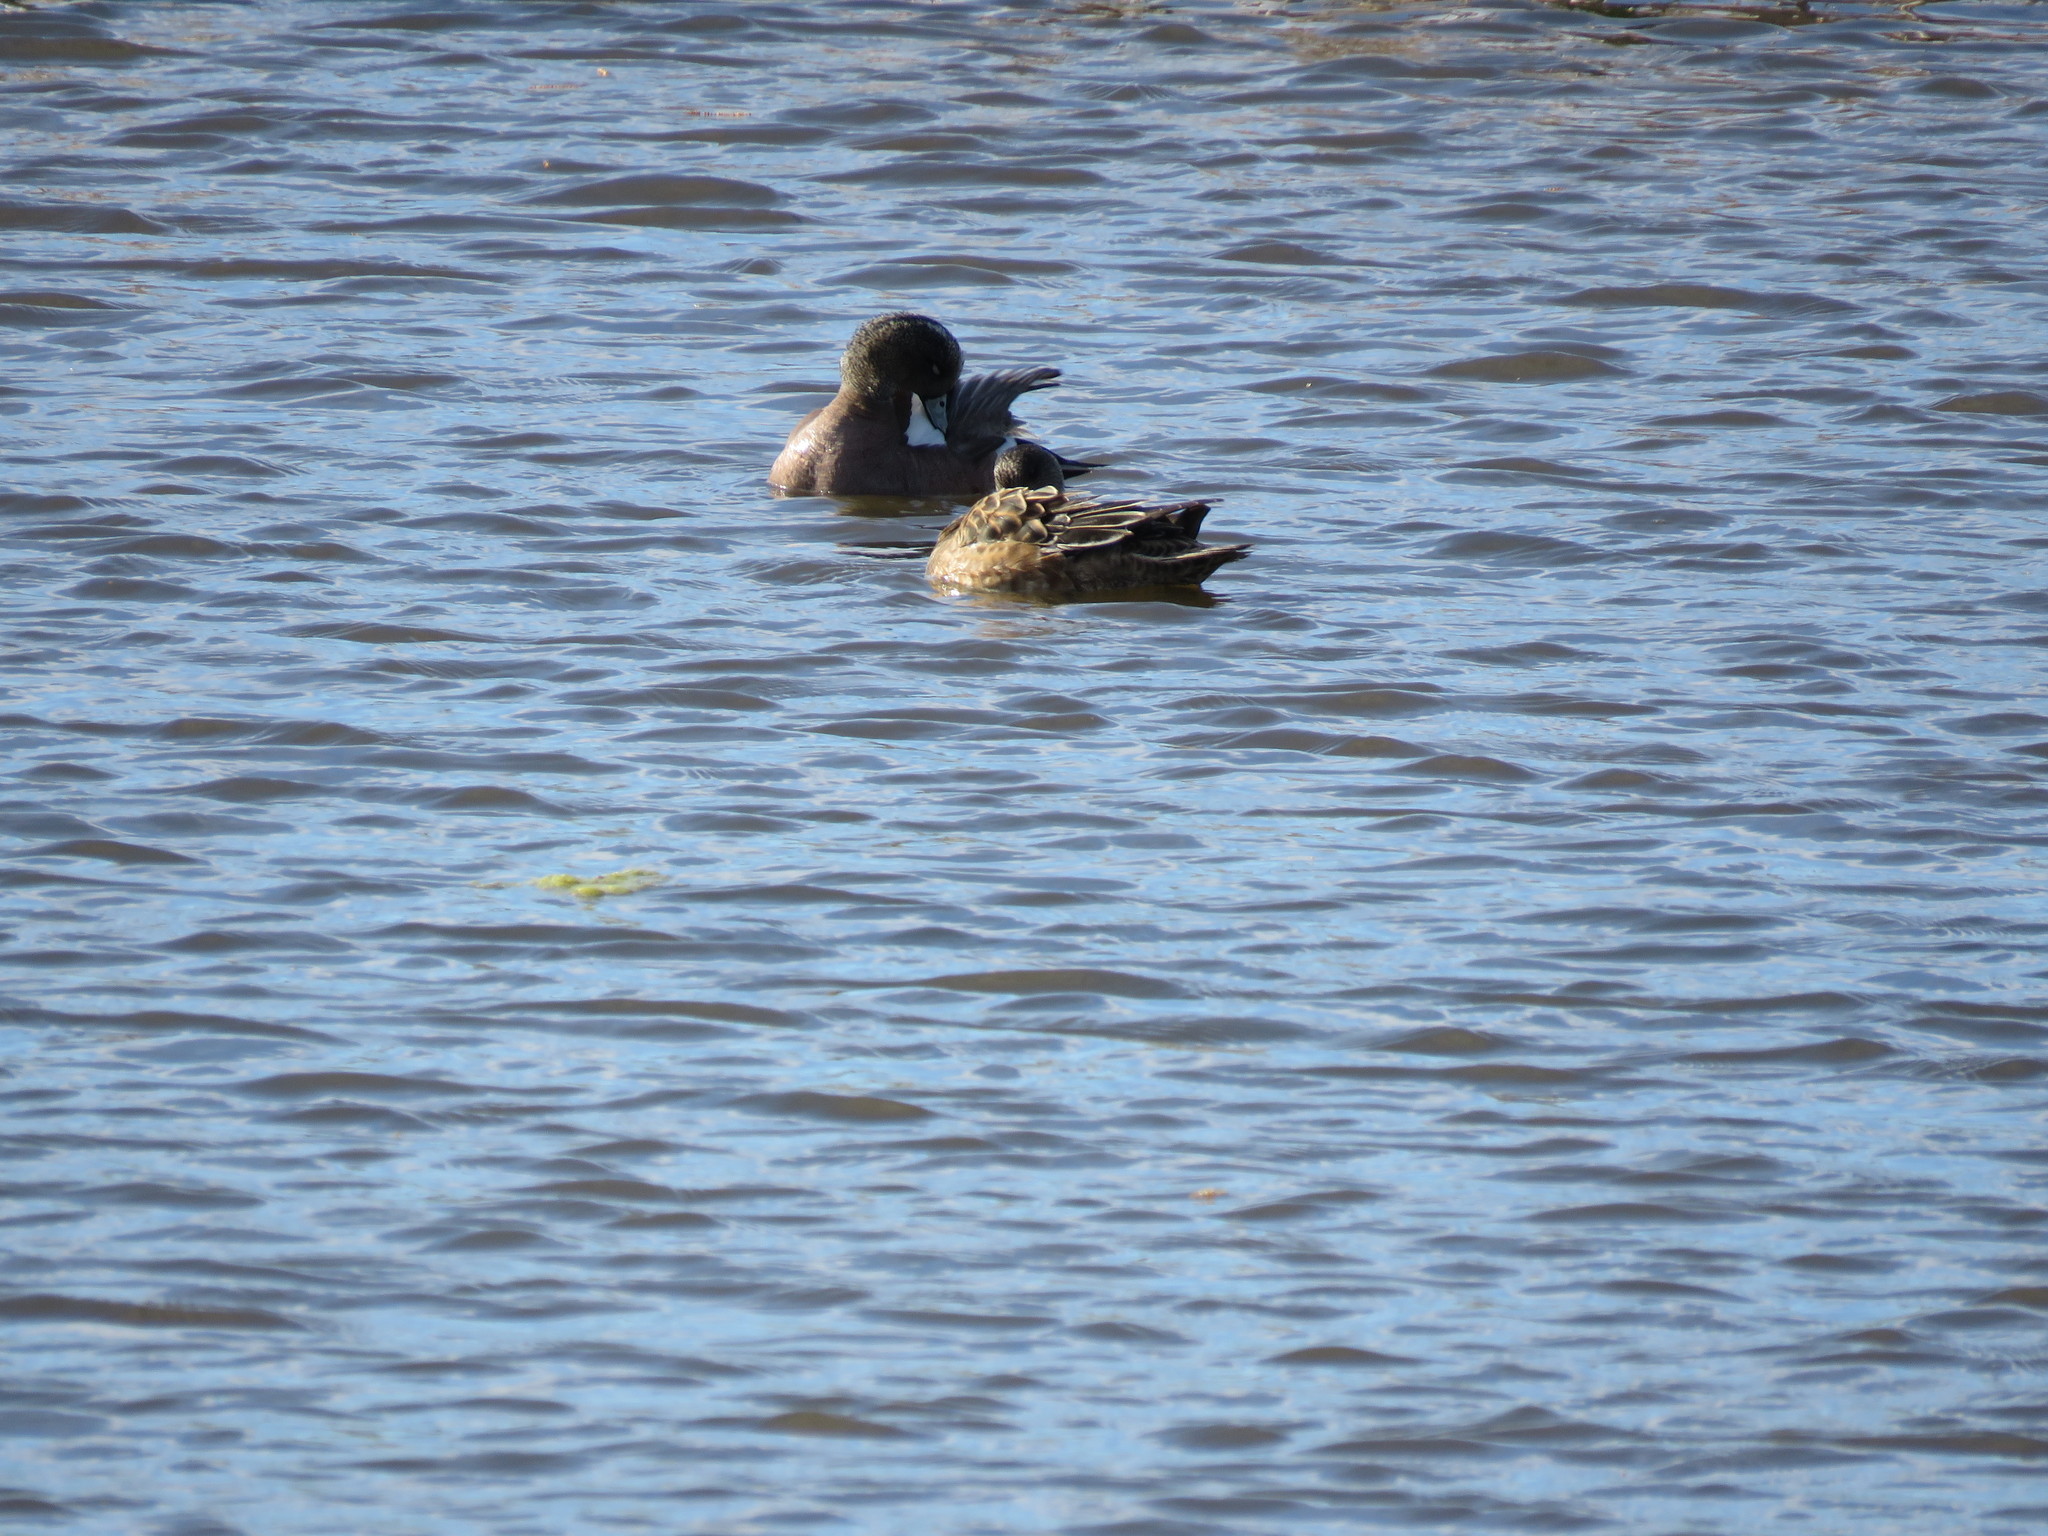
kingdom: Animalia
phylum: Chordata
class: Aves
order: Anseriformes
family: Anatidae
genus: Mareca
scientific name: Mareca americana
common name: American wigeon
